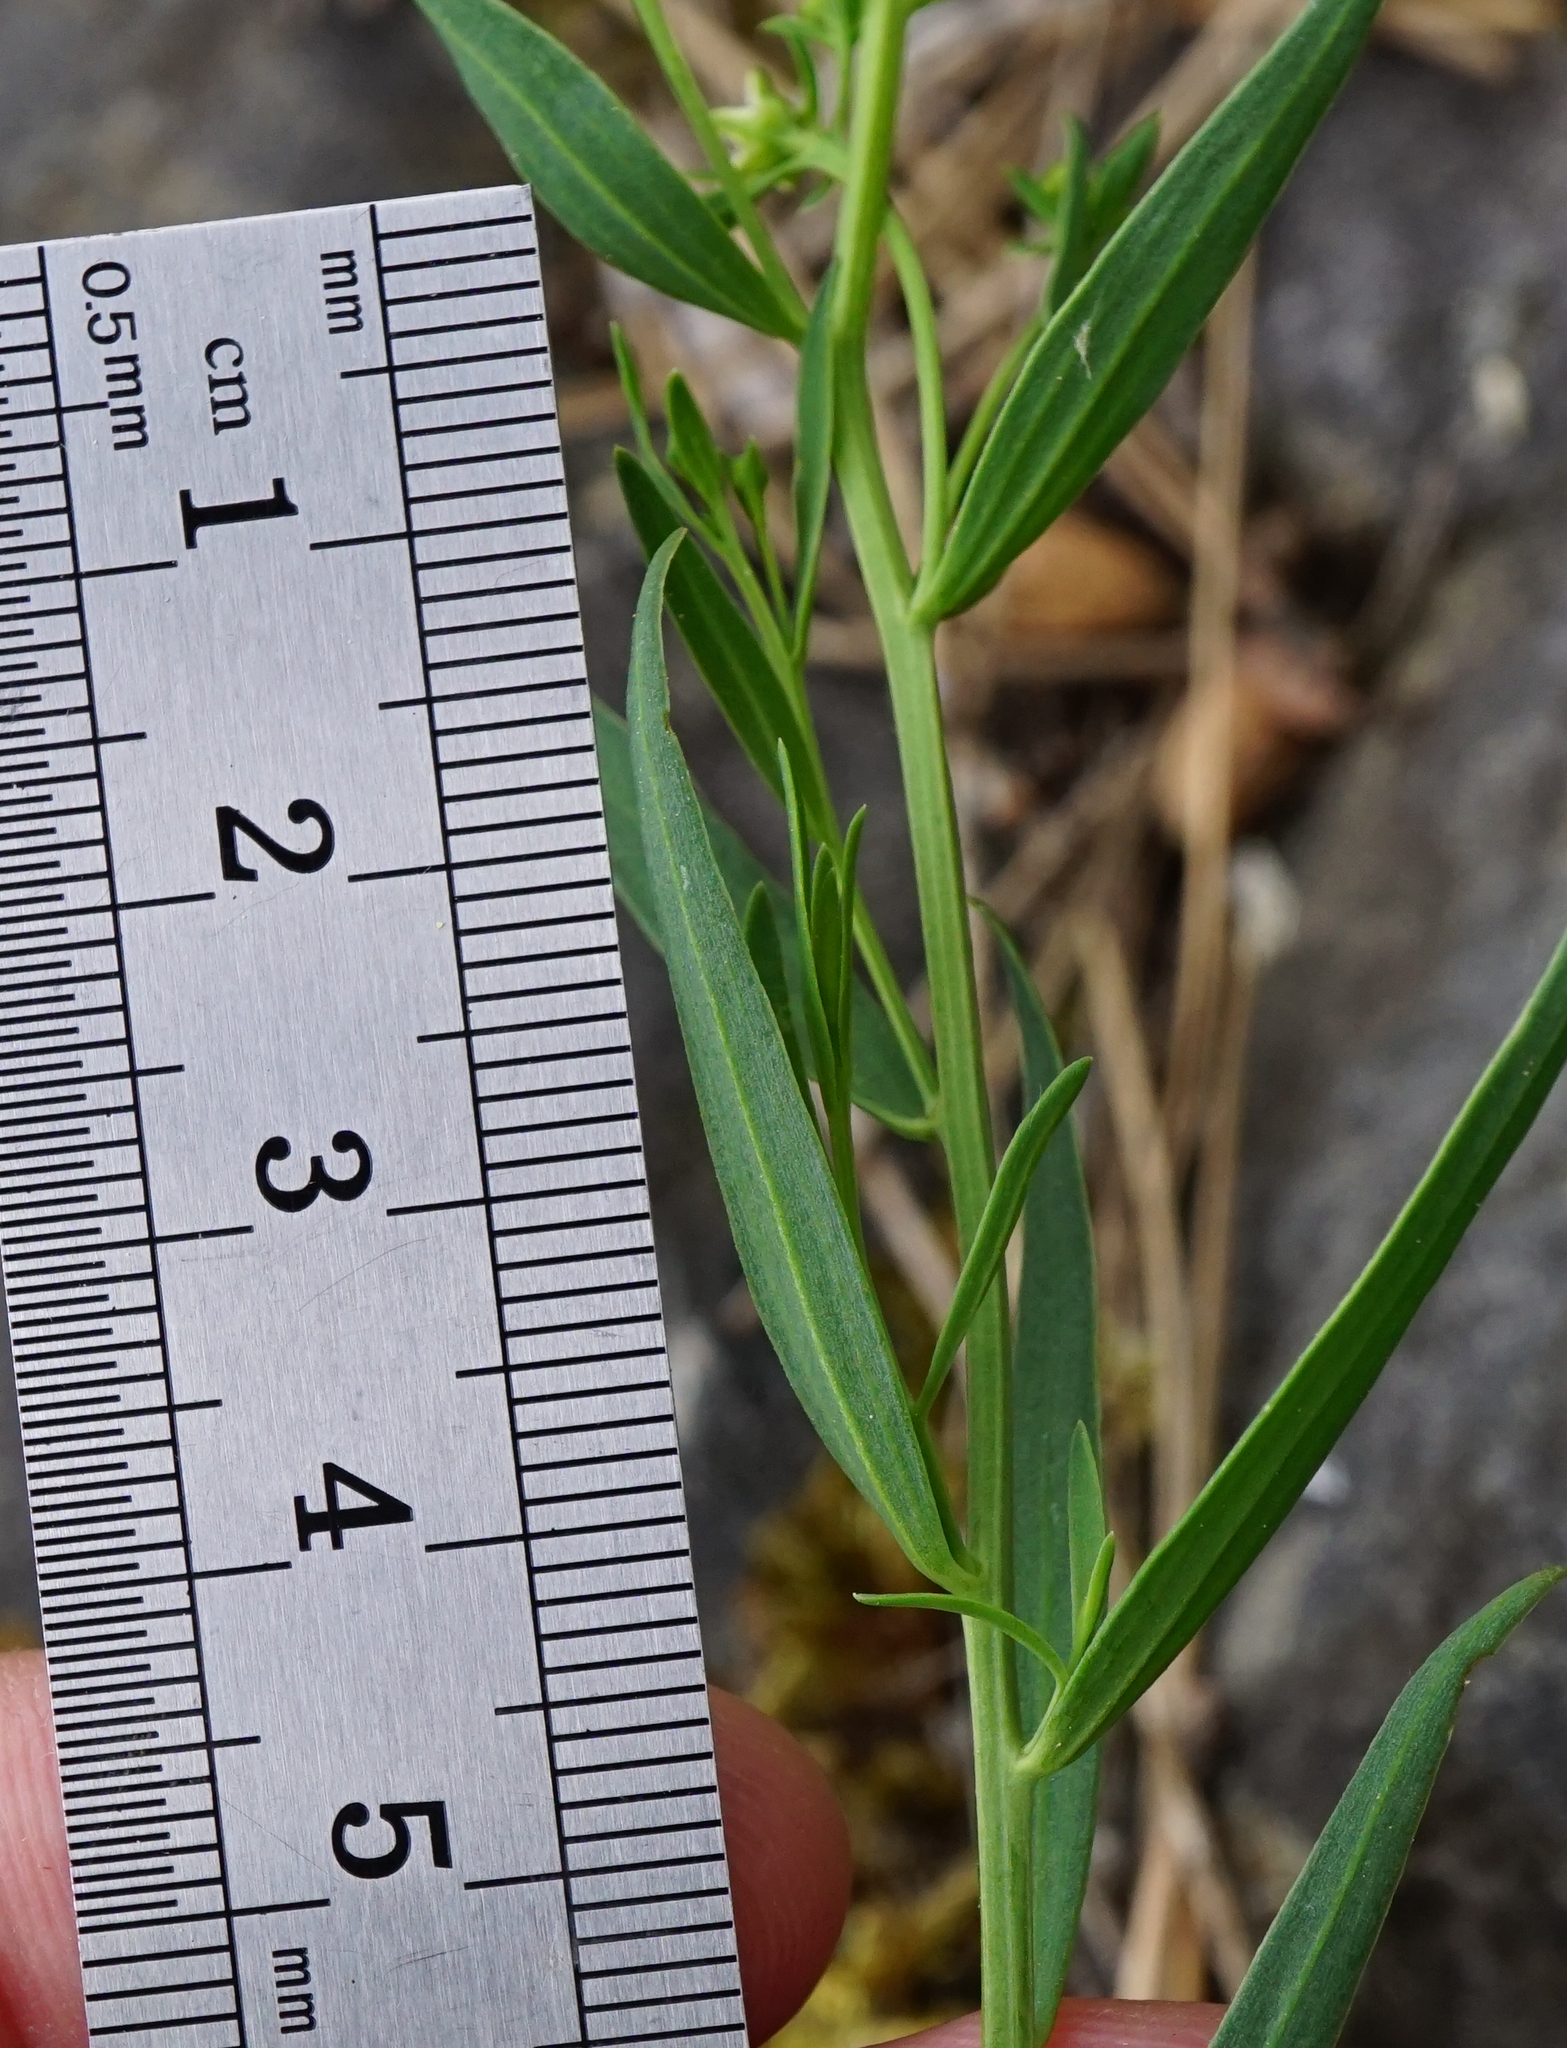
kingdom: Plantae
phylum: Tracheophyta
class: Magnoliopsida
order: Santalales
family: Thesiaceae
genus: Thesium
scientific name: Thesium bavarum
